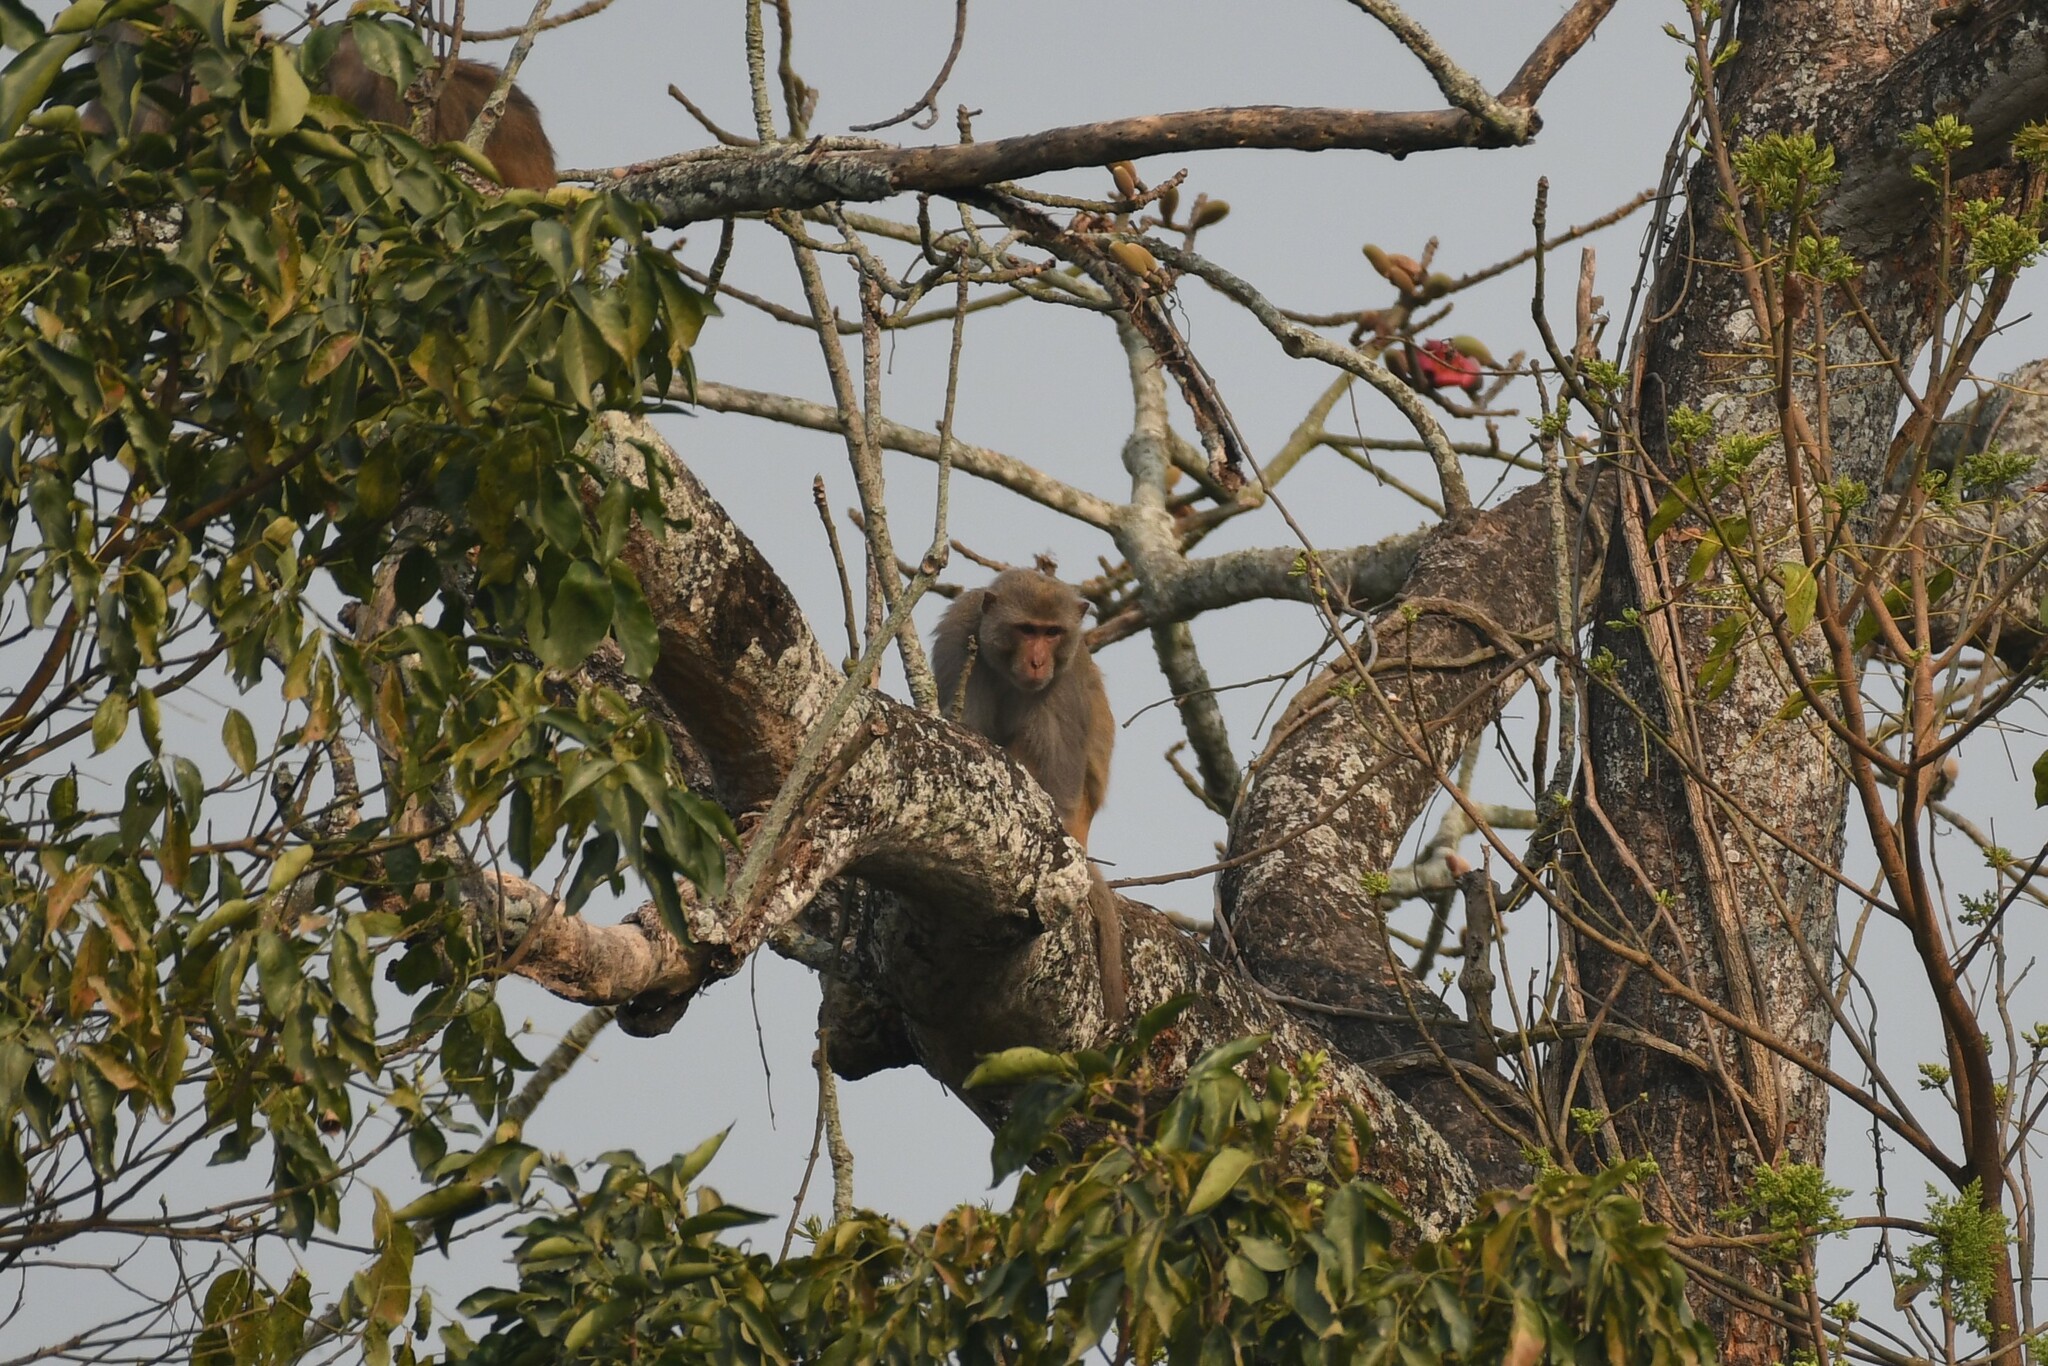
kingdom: Animalia
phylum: Chordata
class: Mammalia
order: Primates
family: Cercopithecidae
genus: Macaca
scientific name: Macaca mulatta
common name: Rhesus monkey
